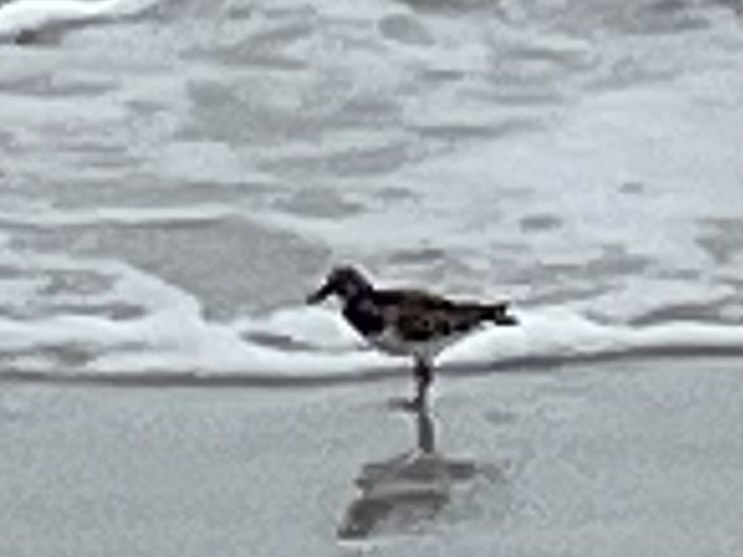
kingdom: Animalia
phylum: Chordata
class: Aves
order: Charadriiformes
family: Scolopacidae
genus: Arenaria
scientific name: Arenaria interpres
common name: Ruddy turnstone
